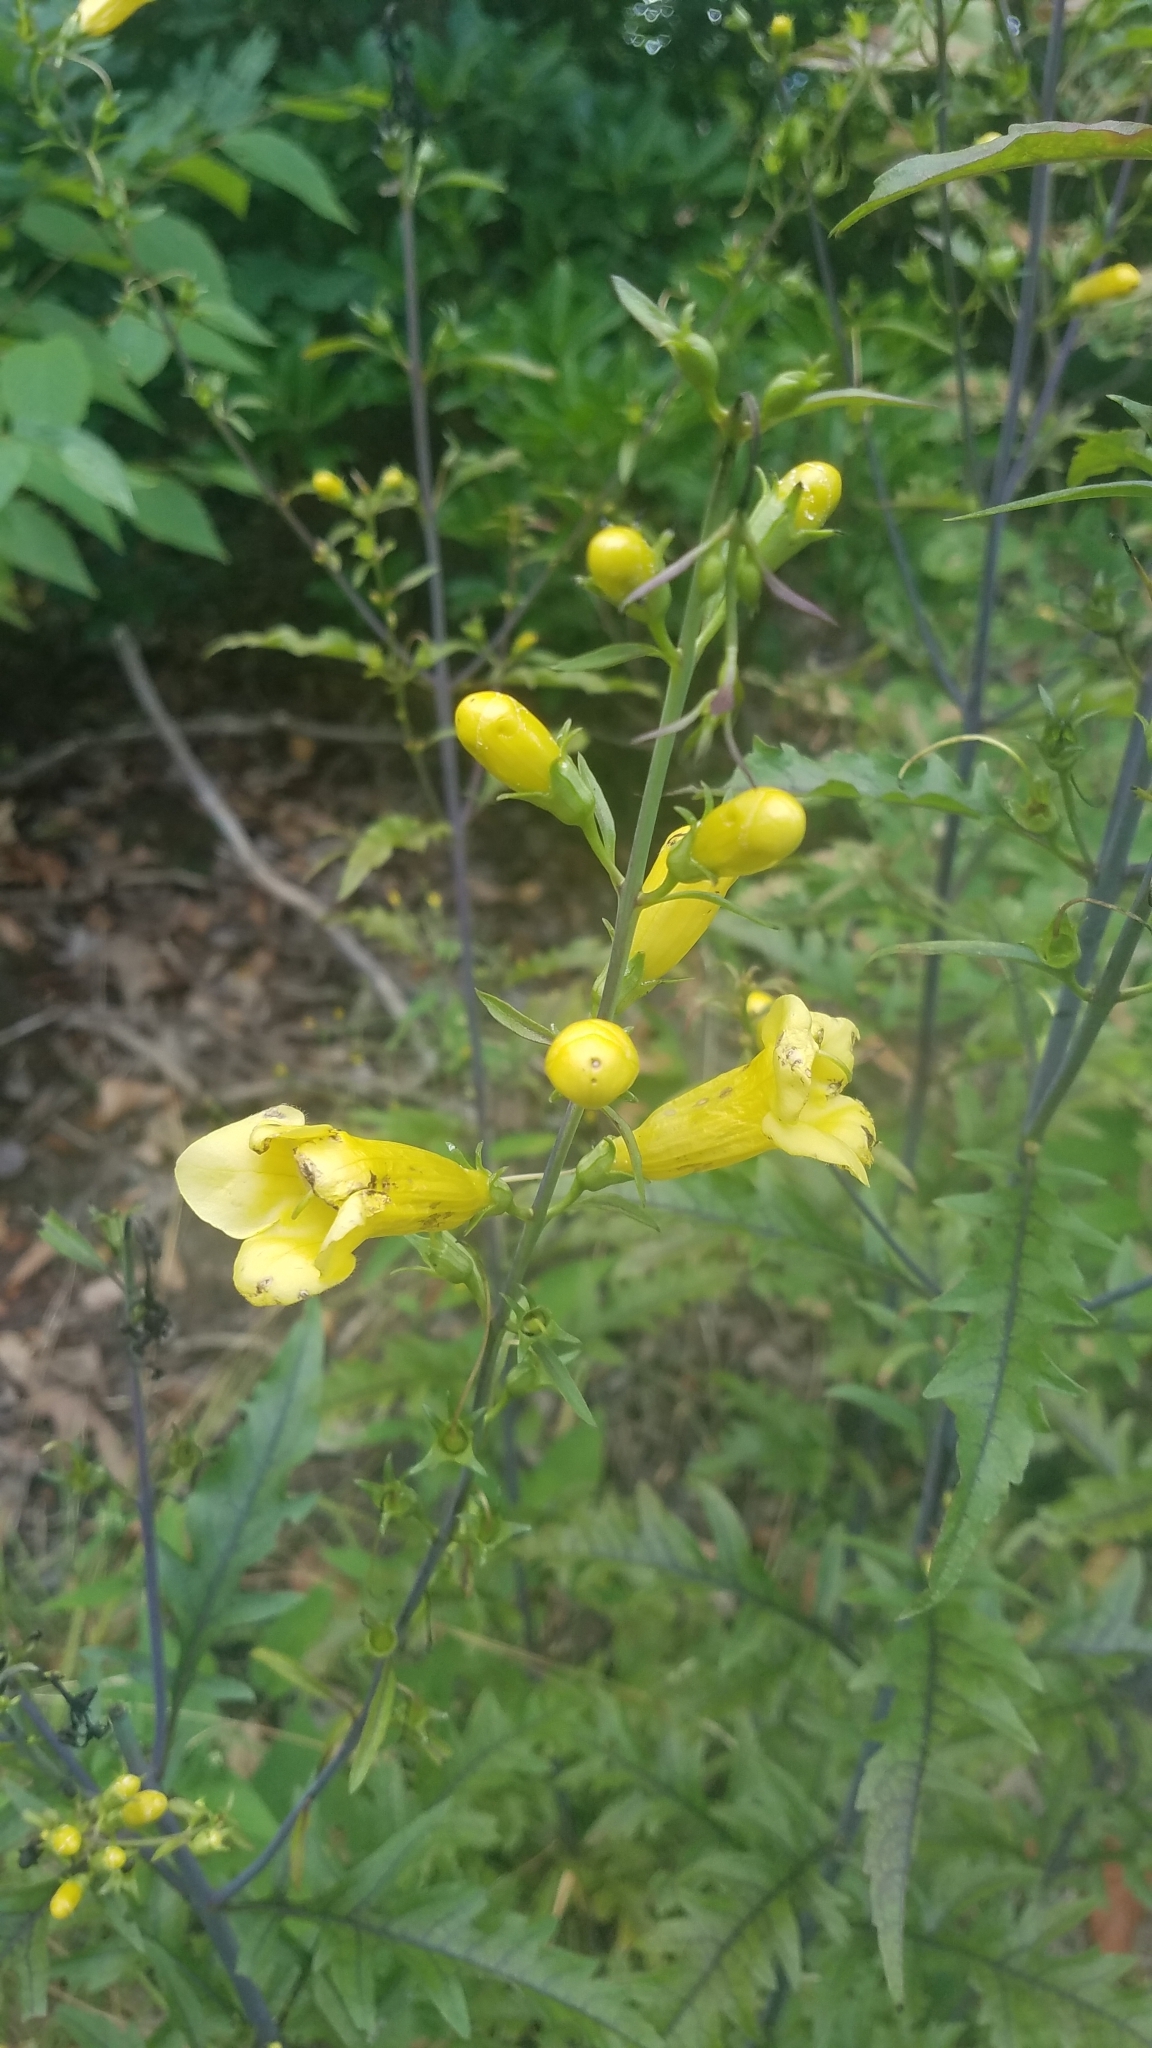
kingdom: Plantae
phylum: Tracheophyta
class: Magnoliopsida
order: Lamiales
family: Orobanchaceae
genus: Aureolaria
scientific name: Aureolaria flava
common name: Smooth false foxglove
